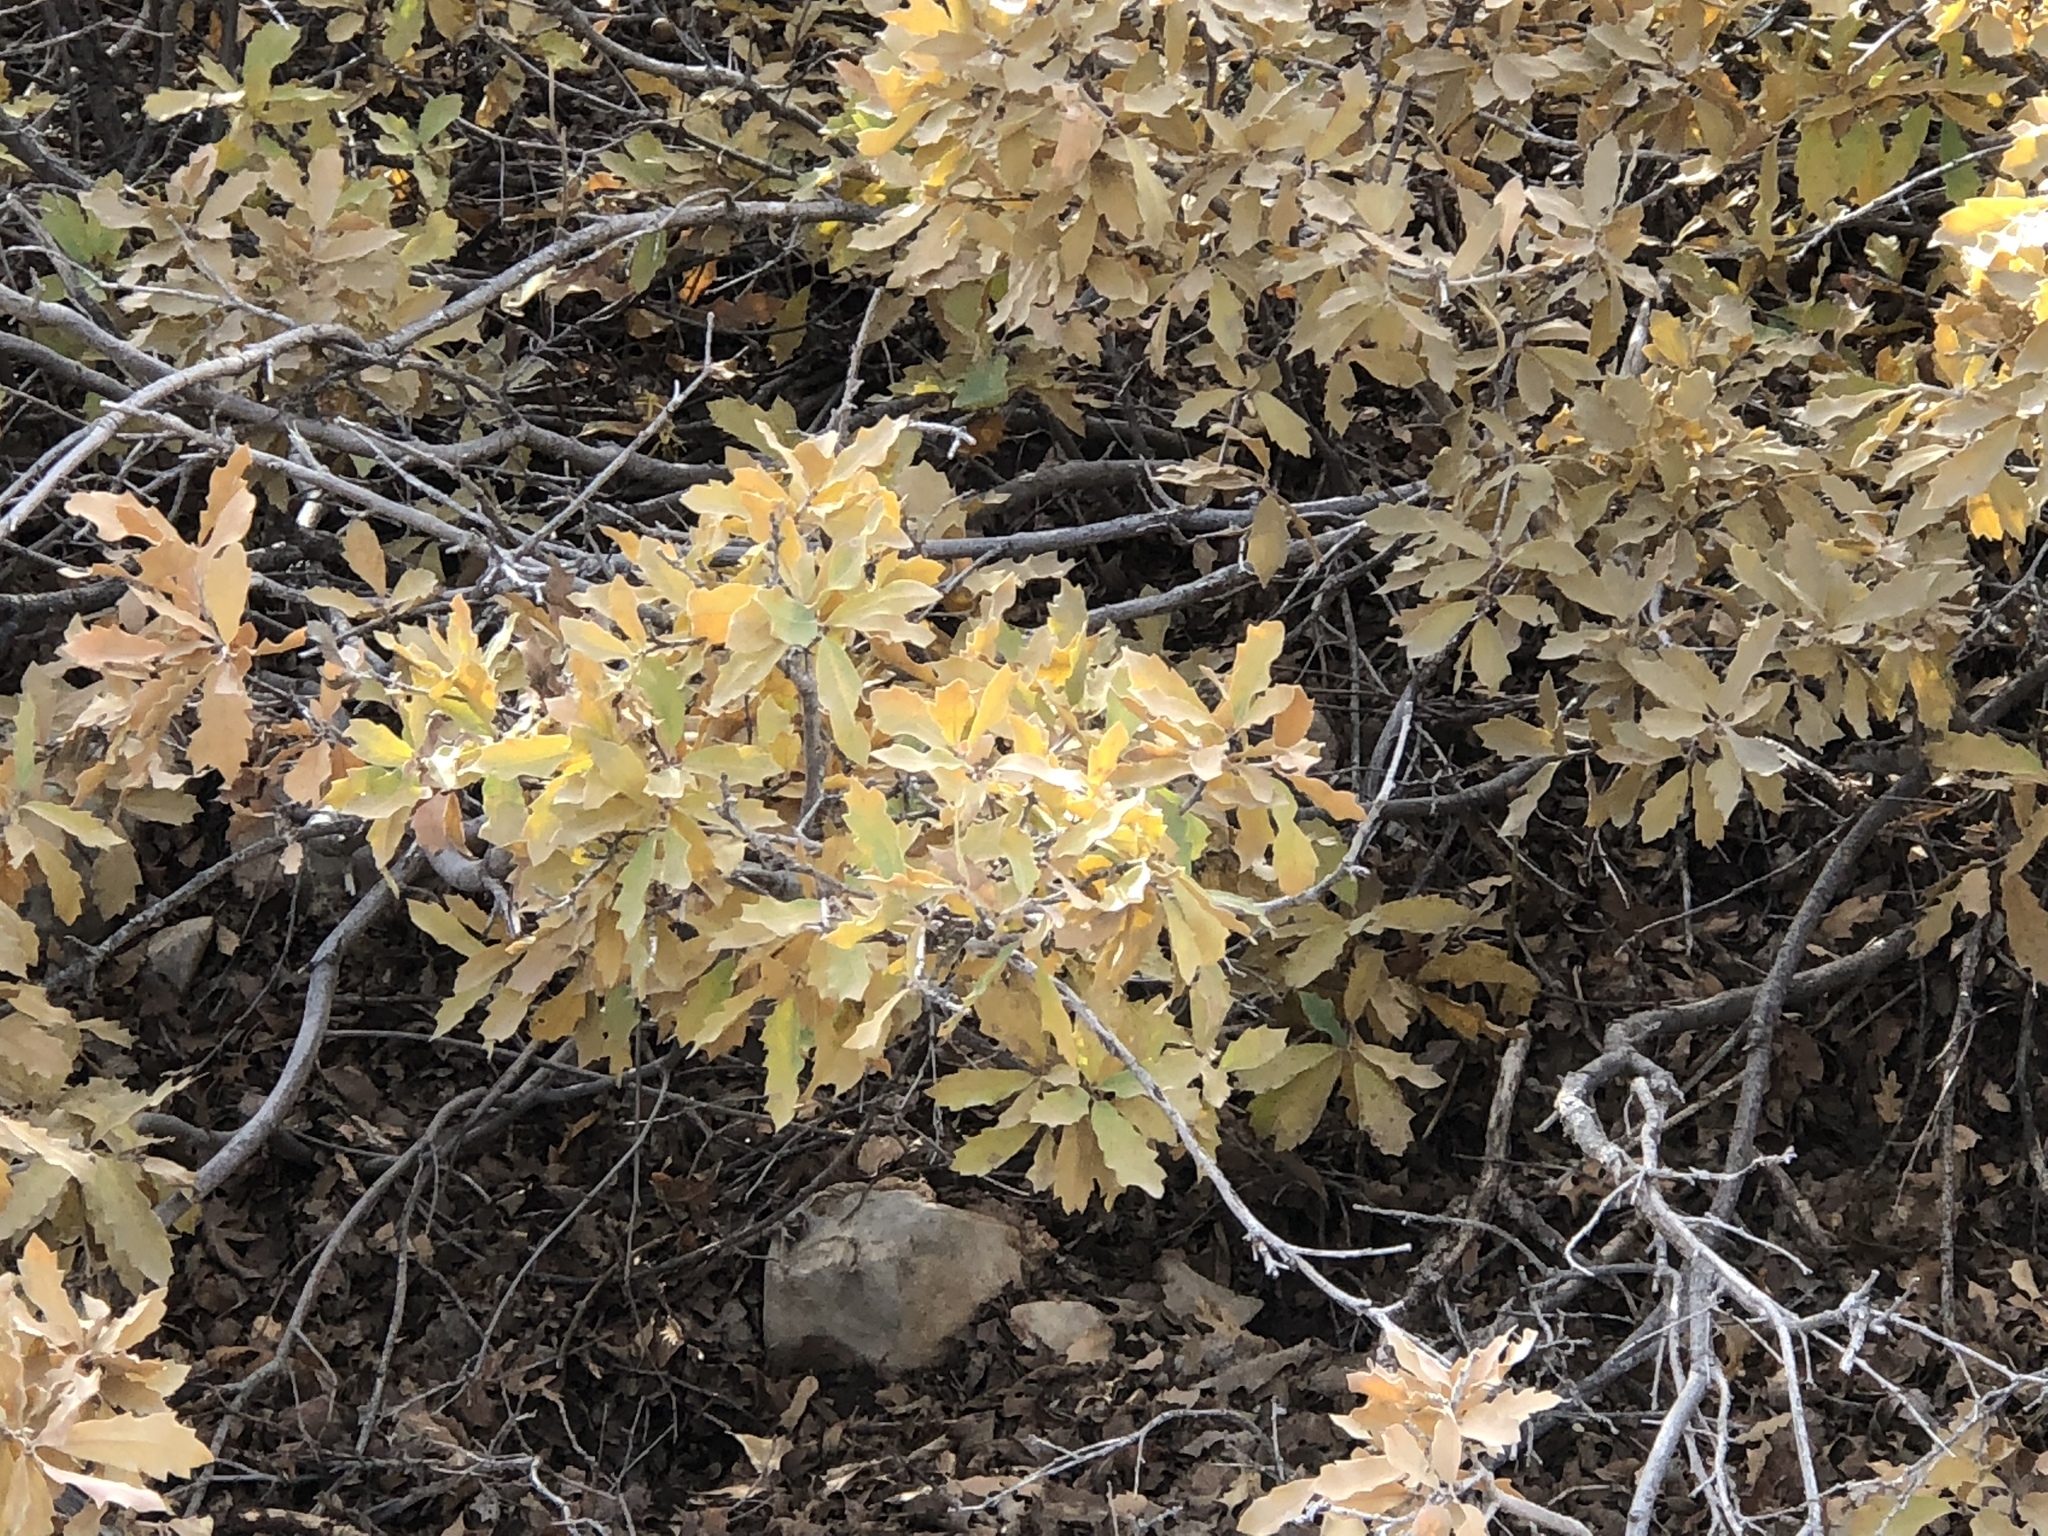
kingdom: Plantae
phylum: Tracheophyta
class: Magnoliopsida
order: Fagales
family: Fagaceae
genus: Quercus
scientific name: Quercus undulata
